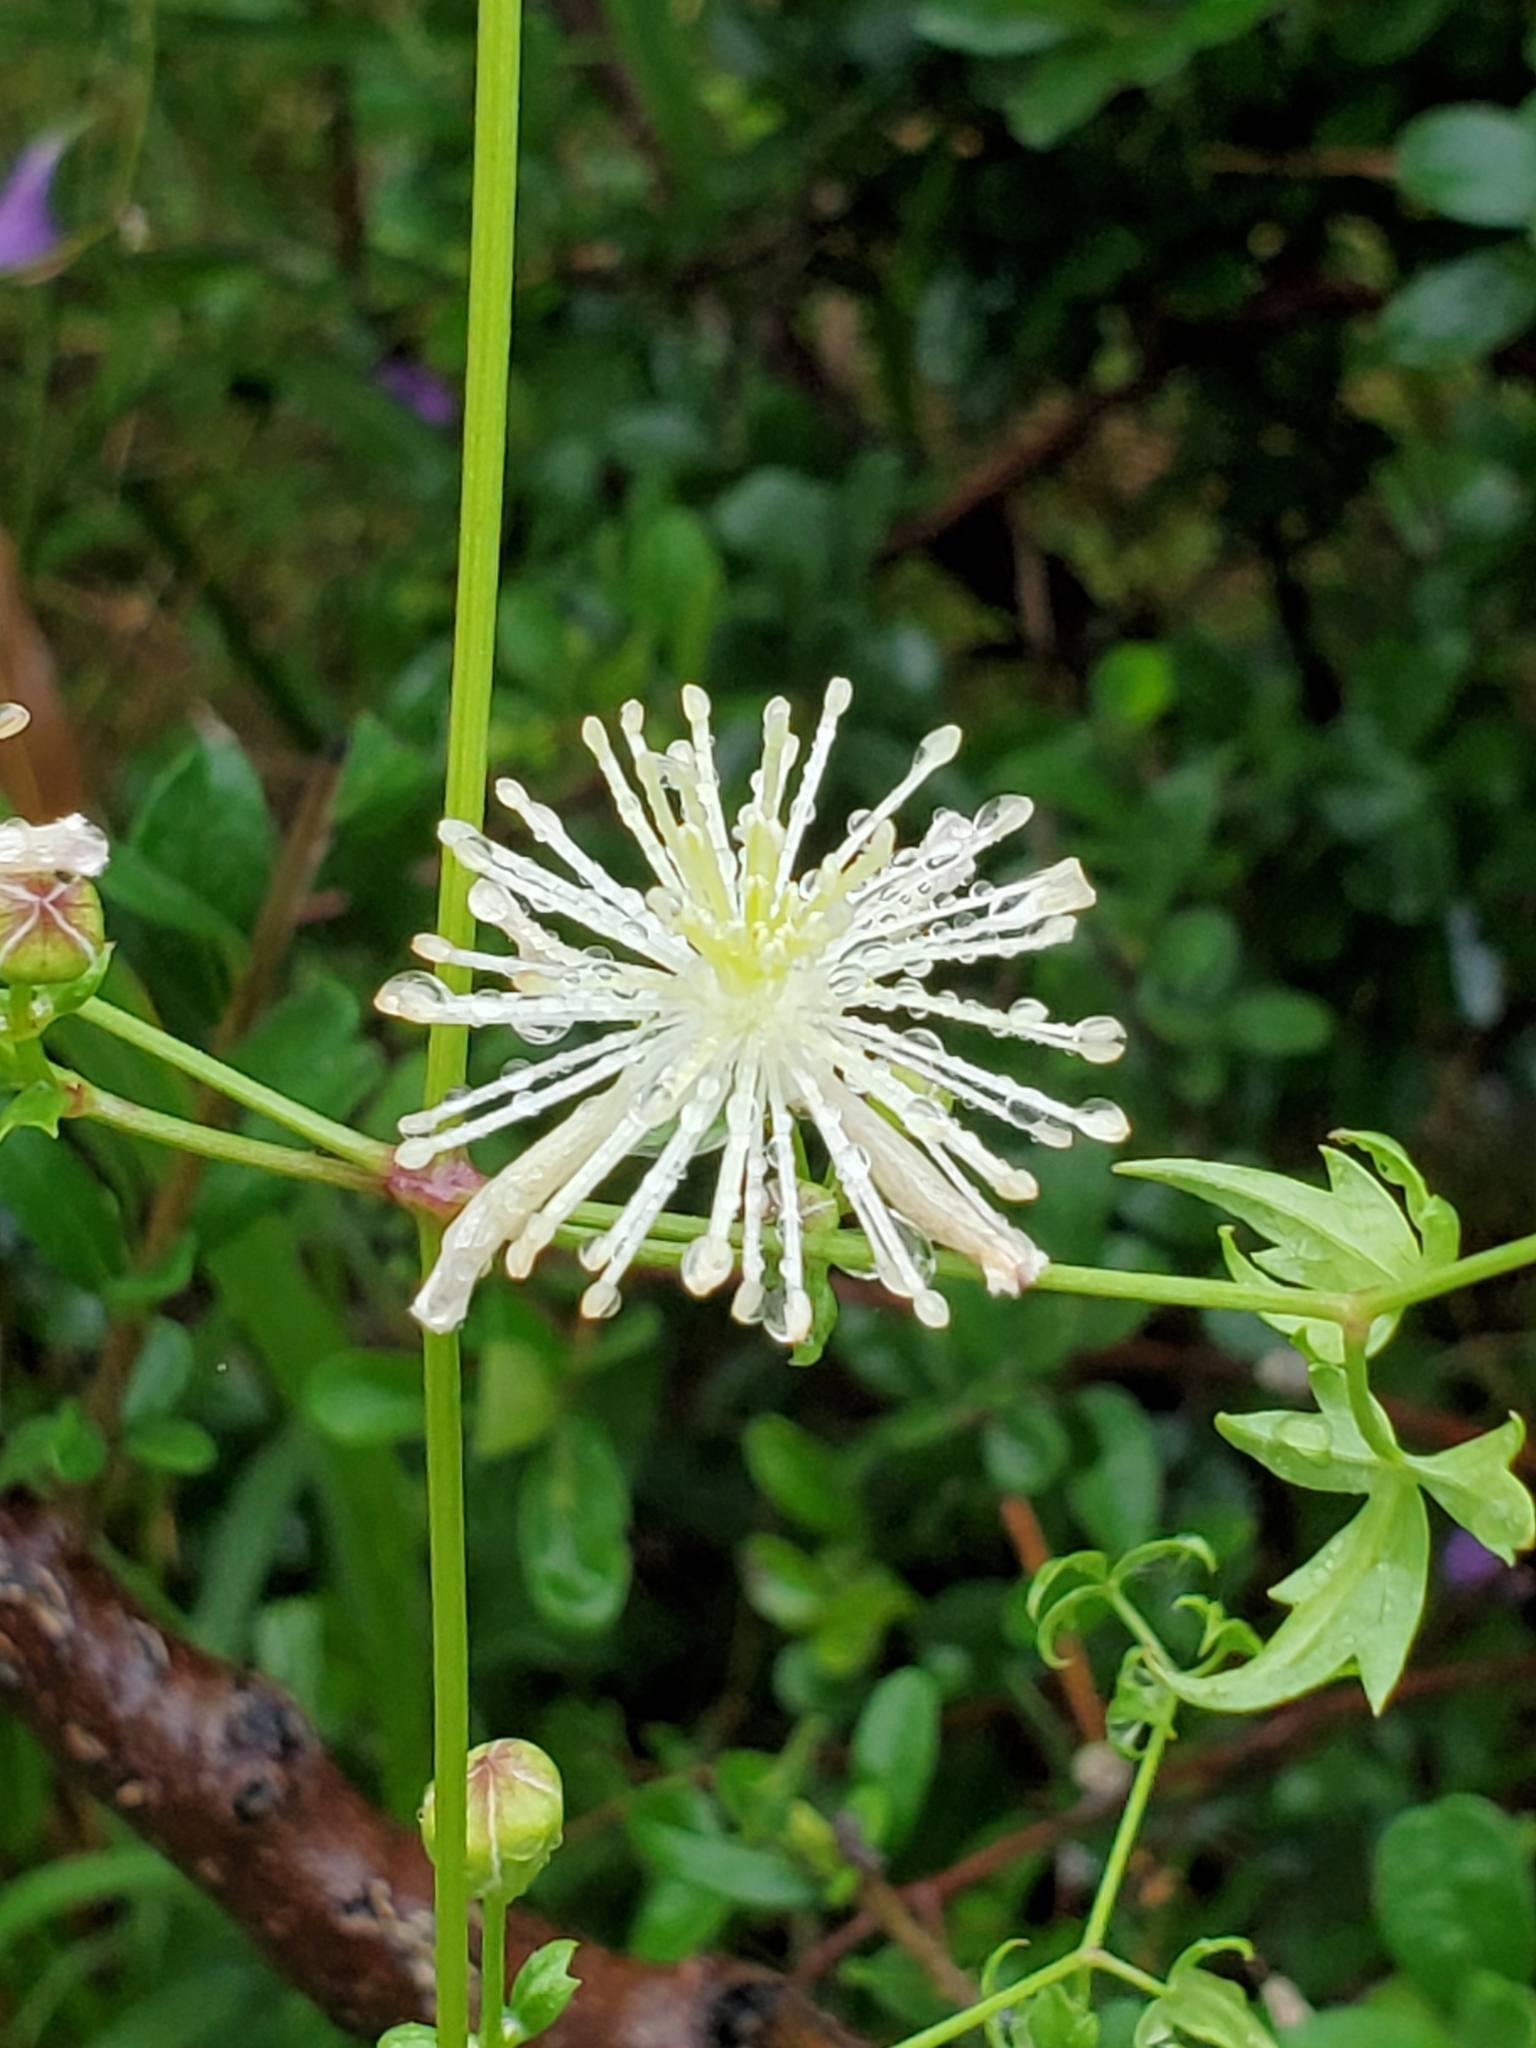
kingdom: Plantae
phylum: Tracheophyta
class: Magnoliopsida
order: Ranunculales
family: Ranunculaceae
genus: Clematis
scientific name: Clematis drummondii
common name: Texas virgin's bower
